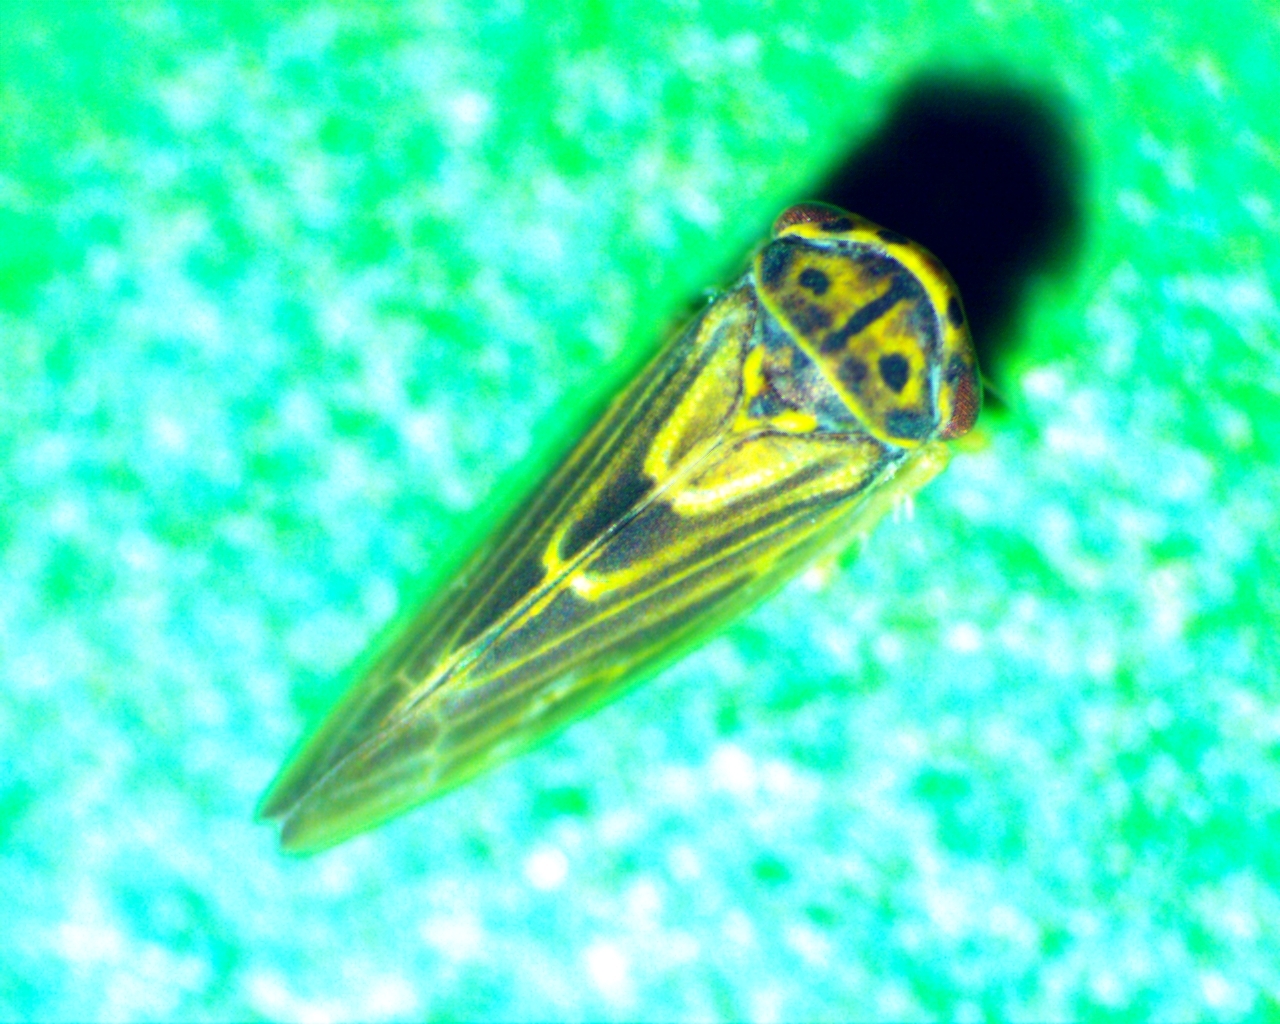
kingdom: Animalia
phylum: Arthropoda
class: Insecta
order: Hemiptera
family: Cicadellidae
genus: Agalliopsis
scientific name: Agalliopsis novella
